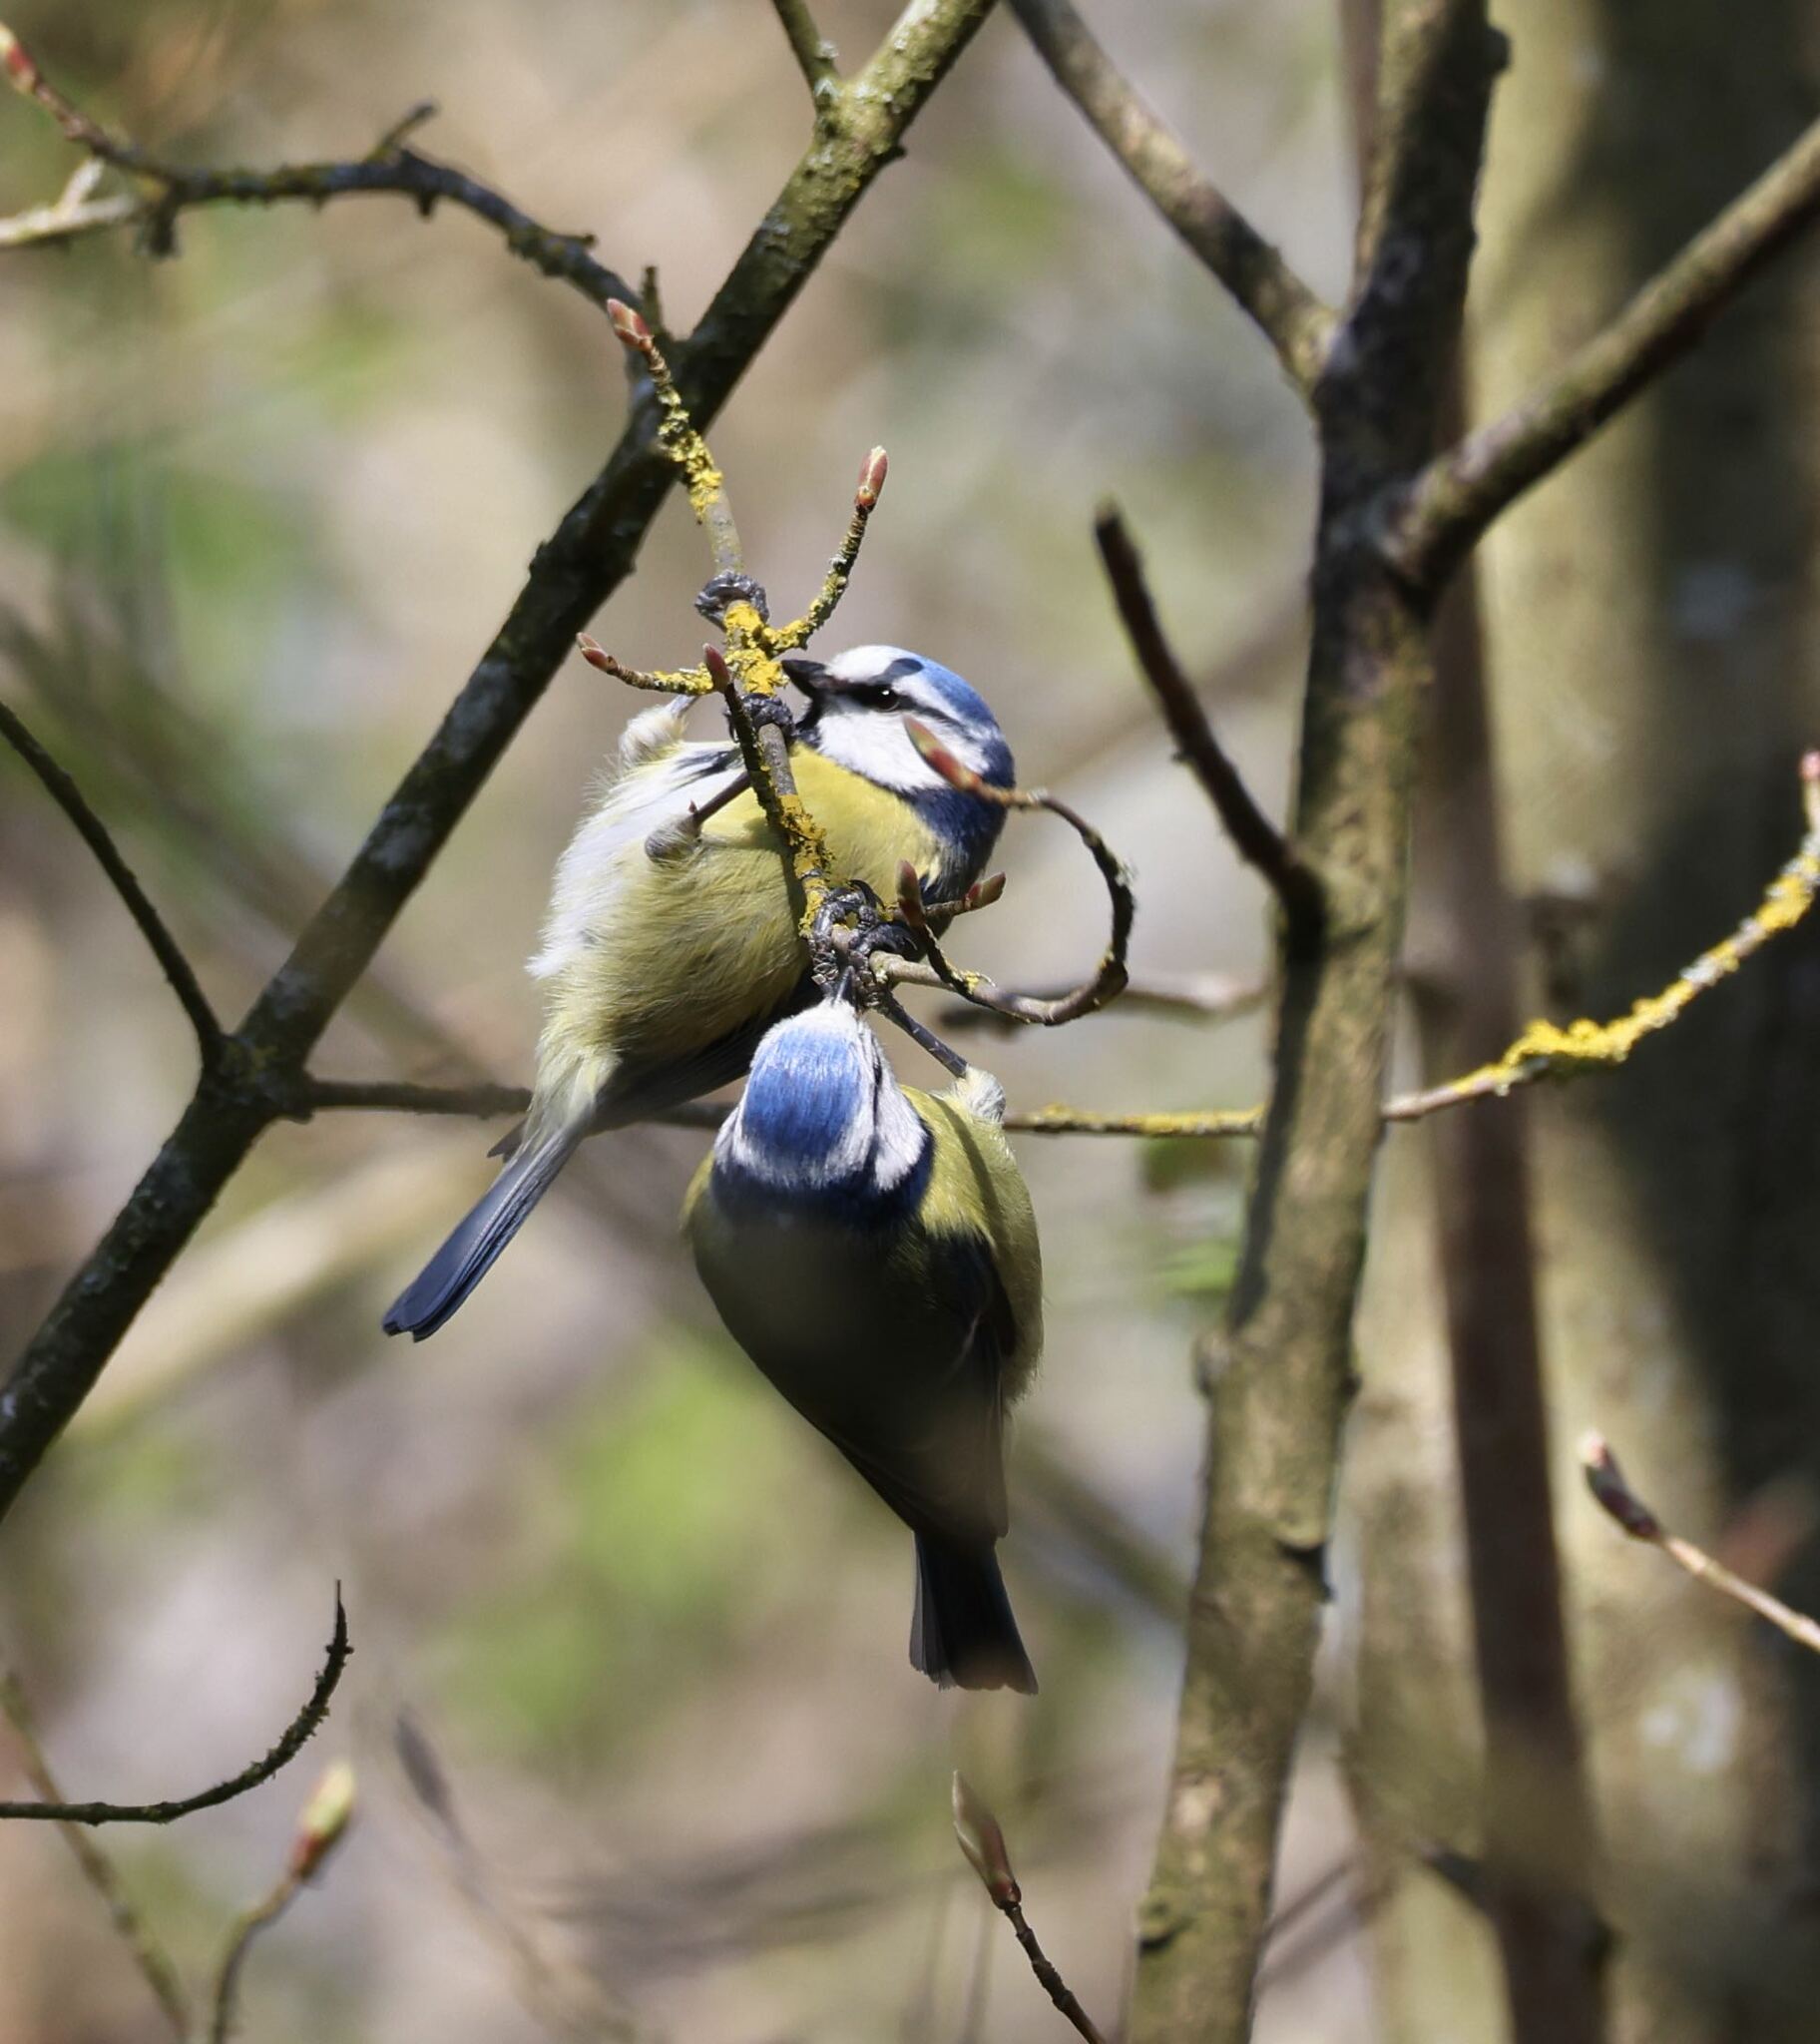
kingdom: Animalia
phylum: Chordata
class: Aves
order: Passeriformes
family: Paridae
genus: Cyanistes
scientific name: Cyanistes caeruleus
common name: Eurasian blue tit
